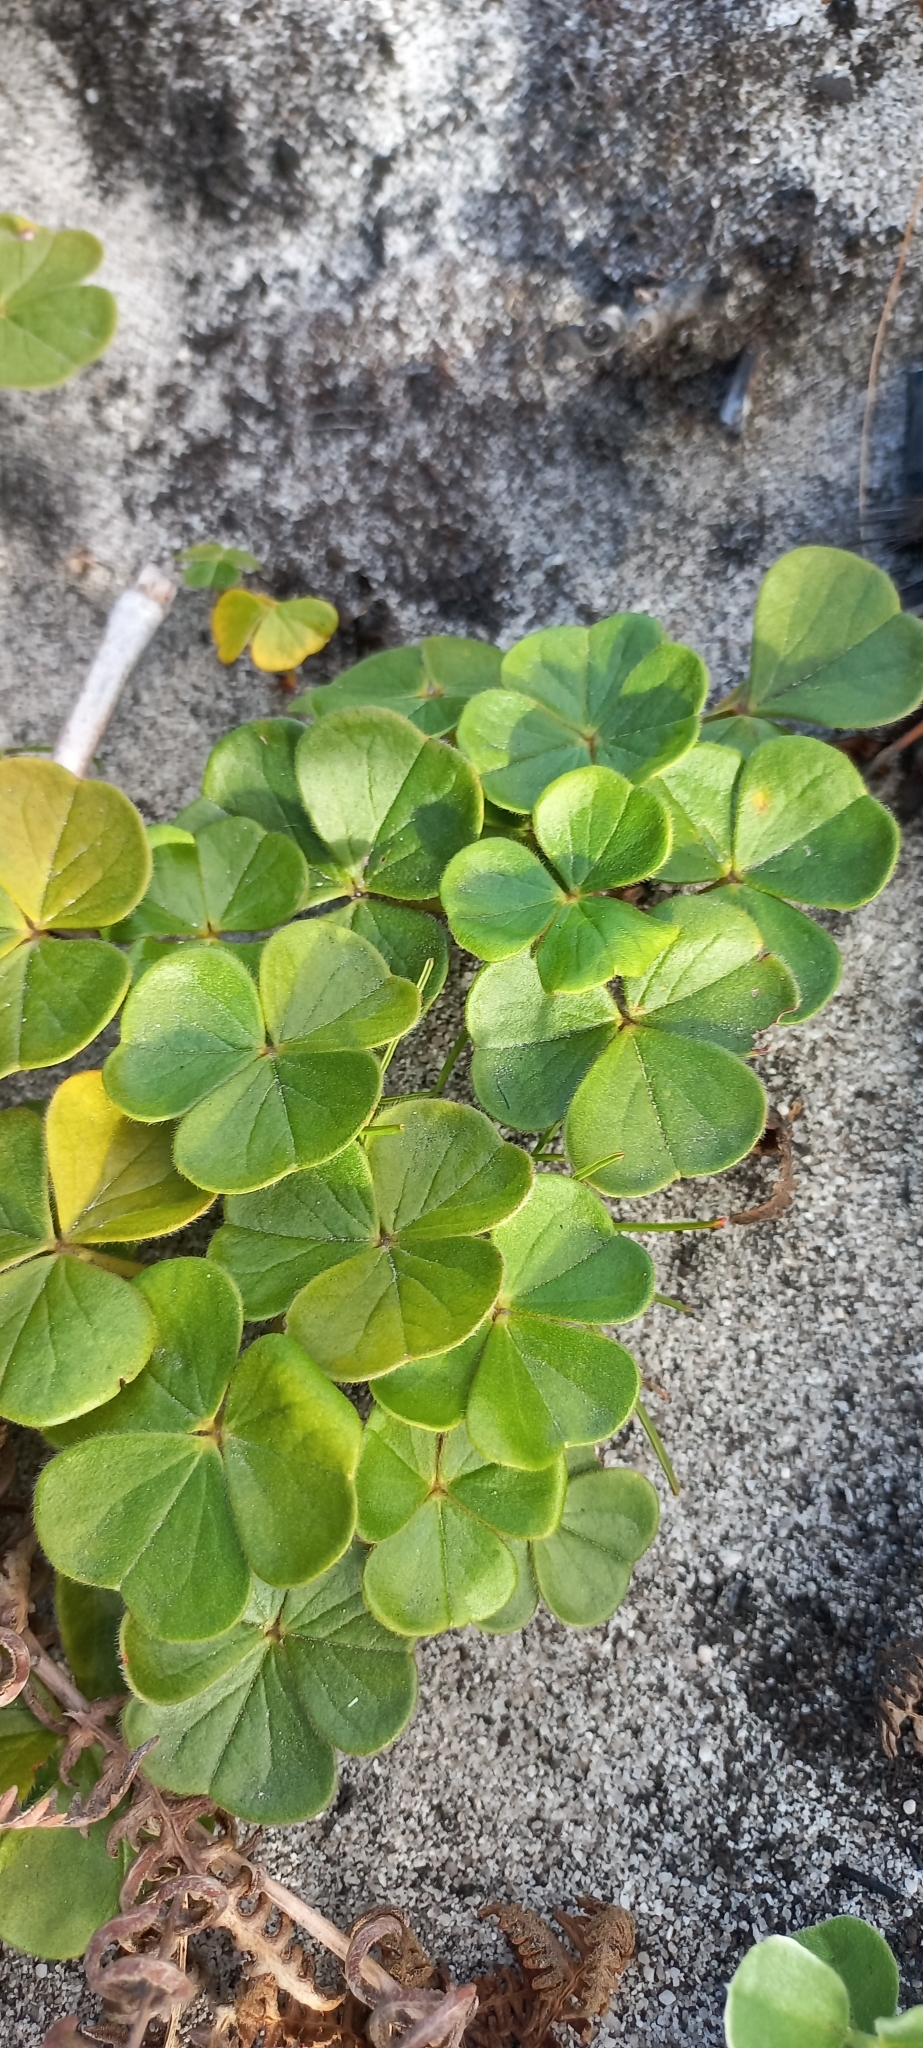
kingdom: Plantae
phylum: Tracheophyta
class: Magnoliopsida
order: Oxalidales
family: Oxalidaceae
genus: Oxalis
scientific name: Oxalis truncatula
